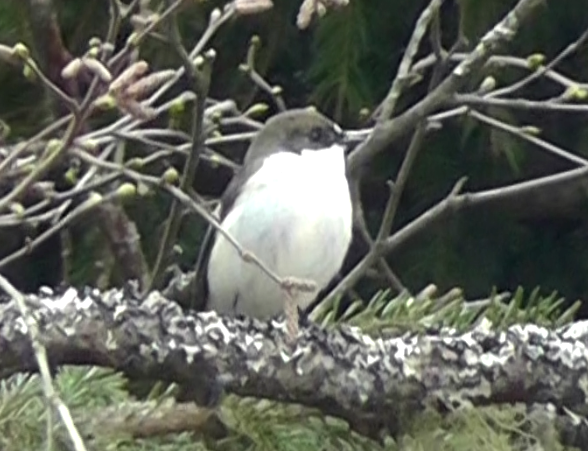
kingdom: Animalia
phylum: Chordata
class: Aves
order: Passeriformes
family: Muscicapidae
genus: Ficedula
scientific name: Ficedula hypoleuca
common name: European pied flycatcher
